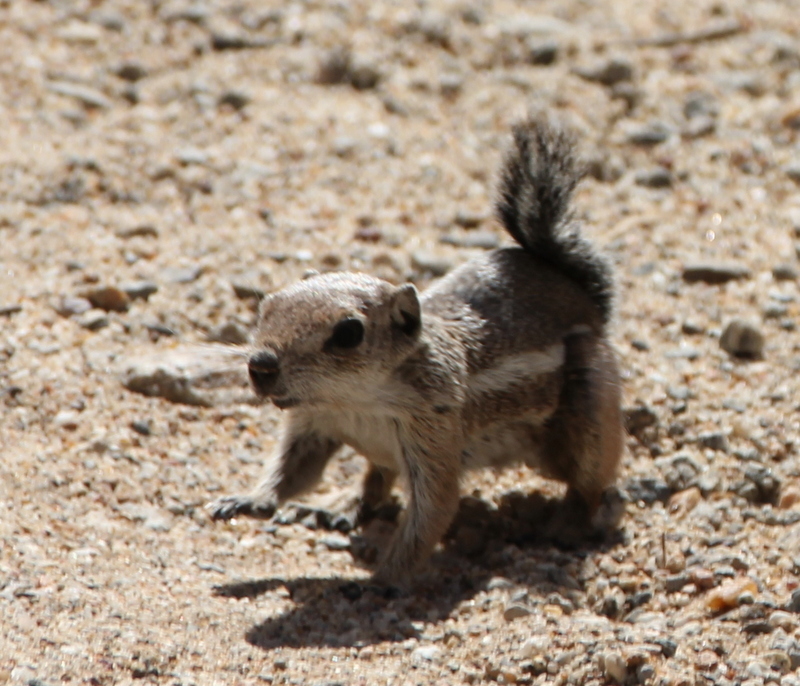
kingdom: Animalia
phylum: Chordata
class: Mammalia
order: Rodentia
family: Sciuridae
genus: Ammospermophilus
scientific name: Ammospermophilus leucurus
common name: White-tailed antelope squirrel
